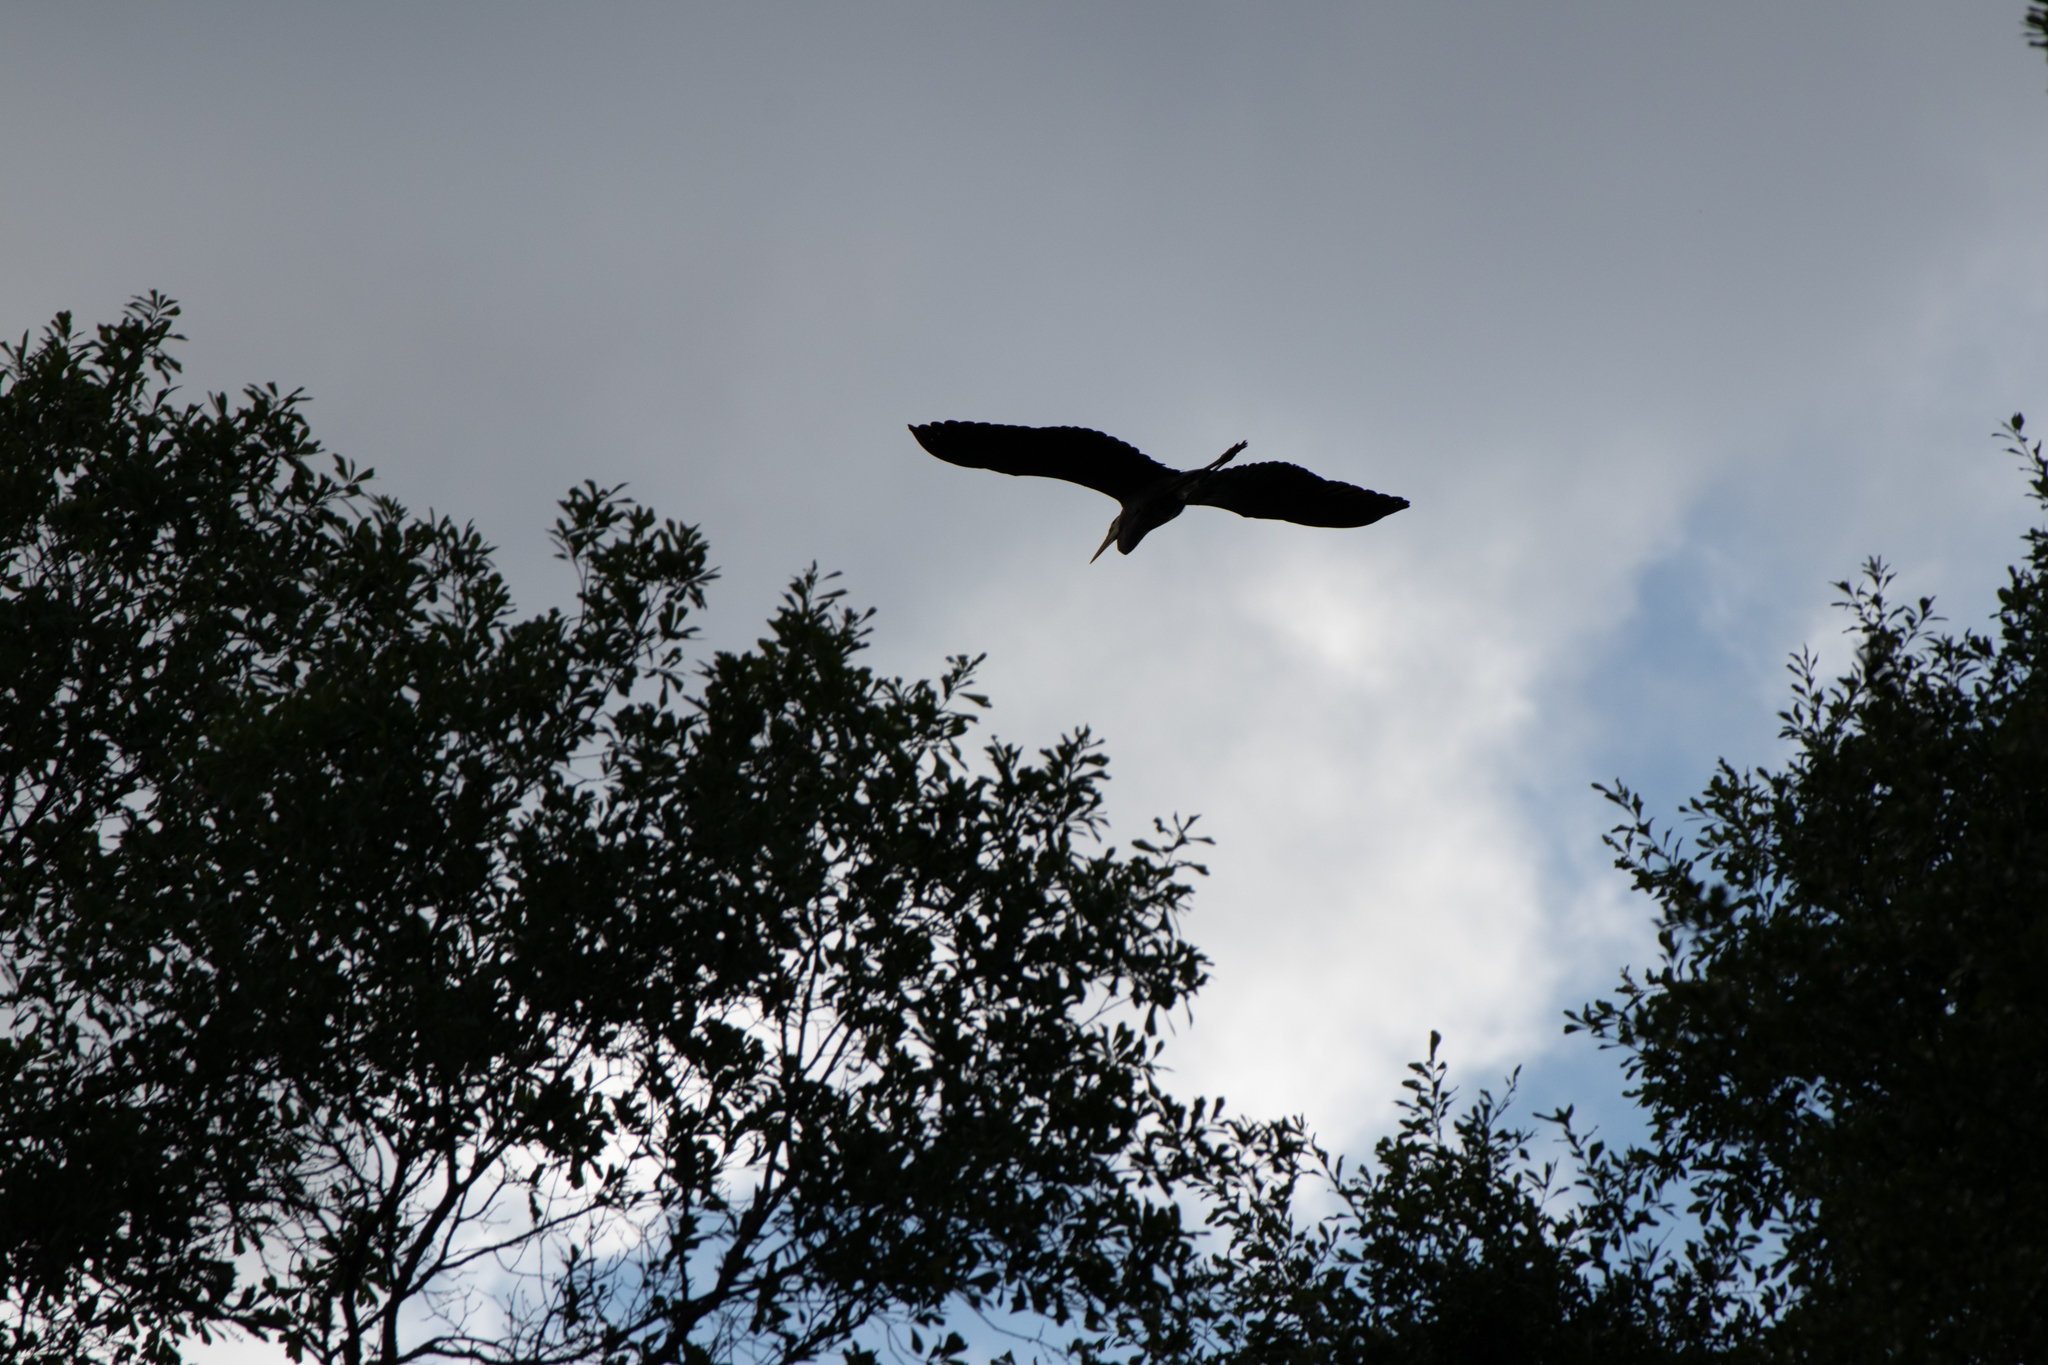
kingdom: Animalia
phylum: Chordata
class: Aves
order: Pelecaniformes
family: Ardeidae
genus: Ardea
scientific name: Ardea herodias
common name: Great blue heron
